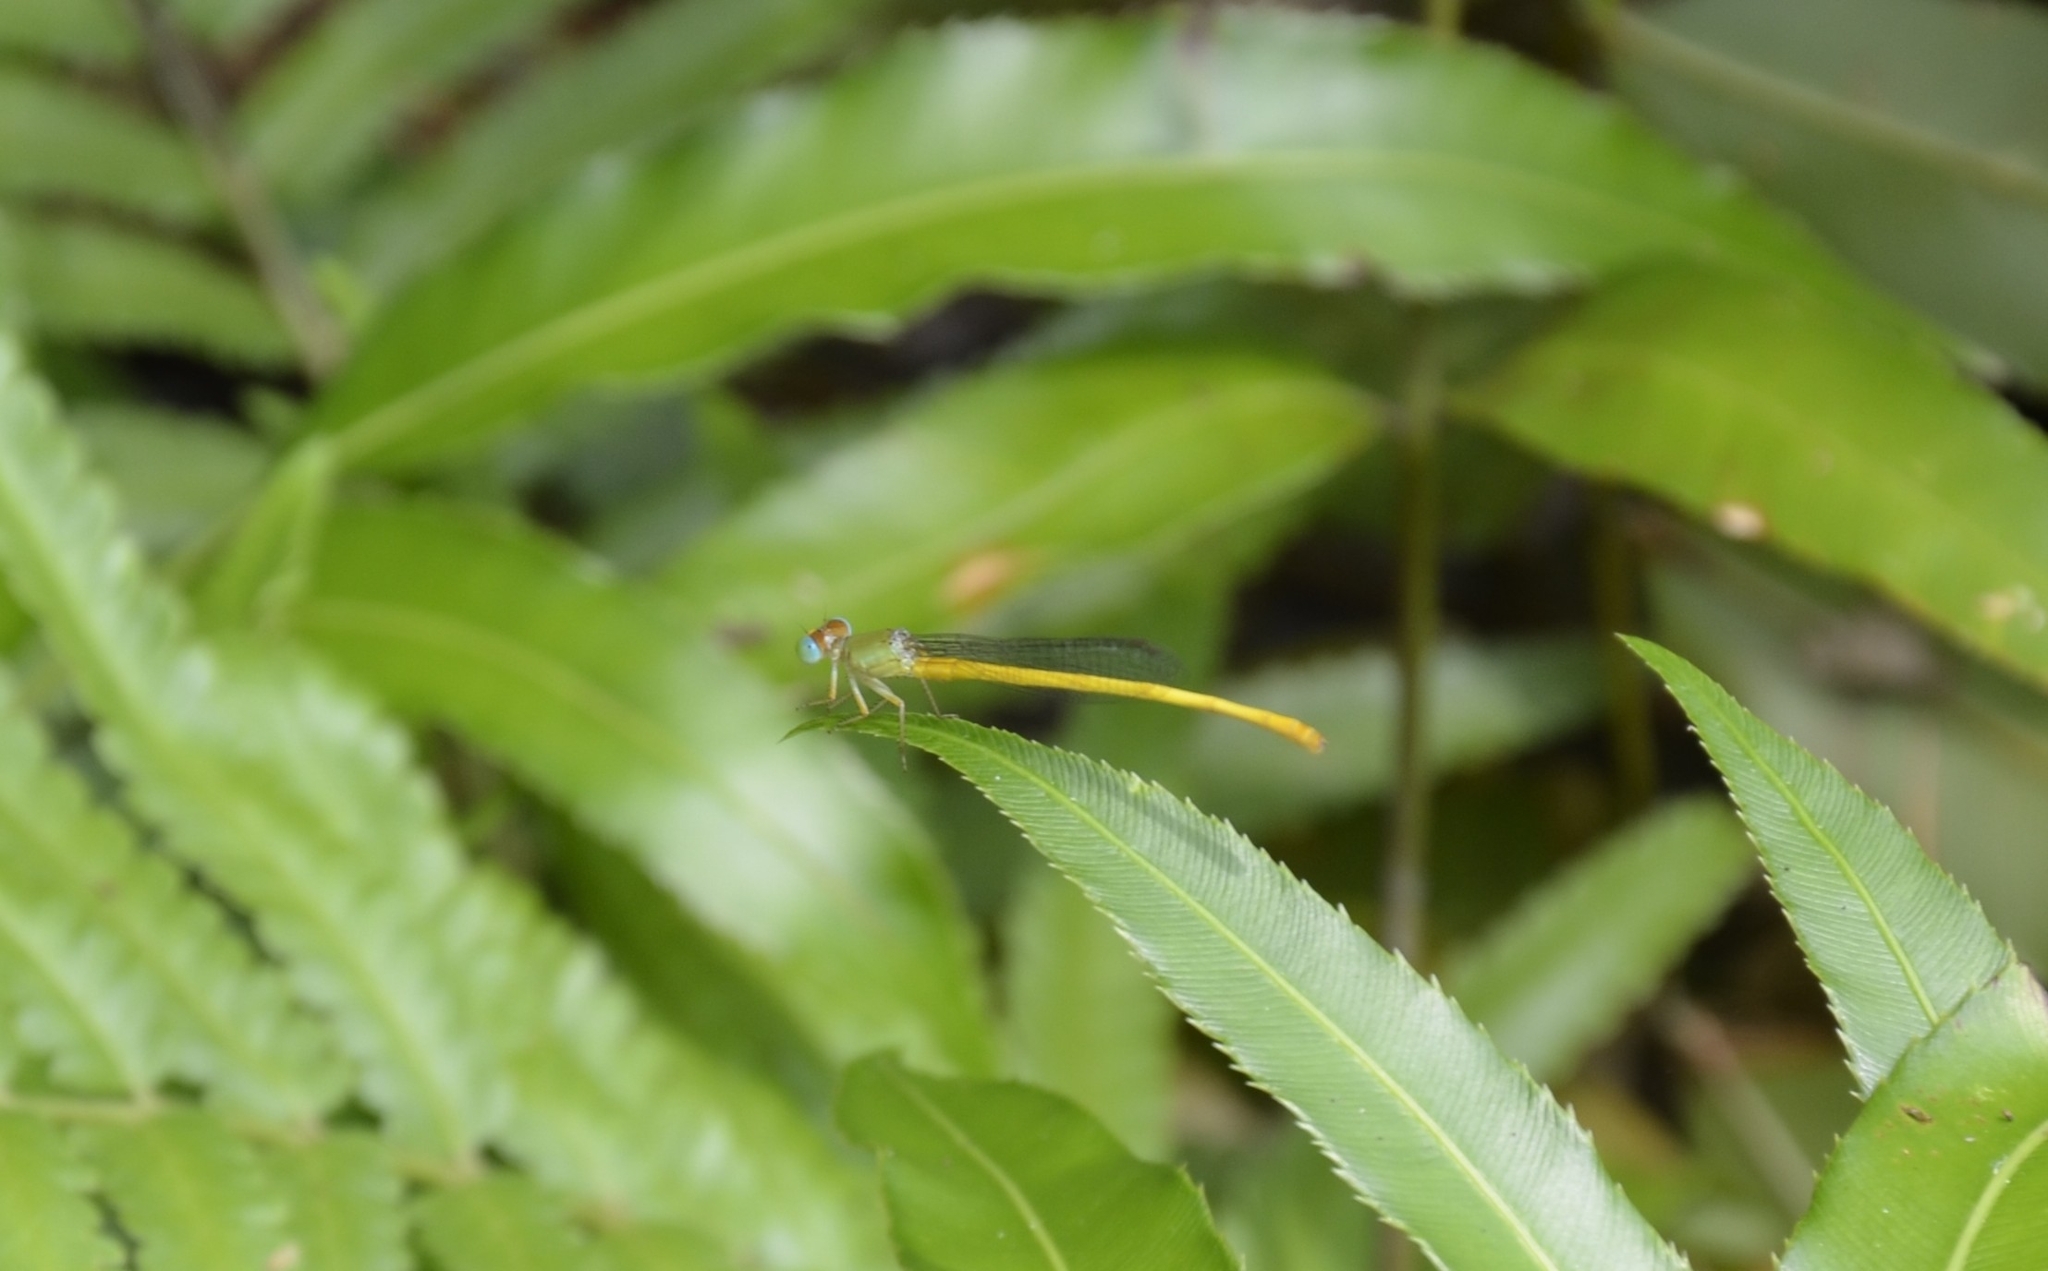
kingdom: Animalia
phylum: Arthropoda
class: Insecta
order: Odonata
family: Coenagrionidae
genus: Ceriagrion
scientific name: Ceriagrion coromandelianum
